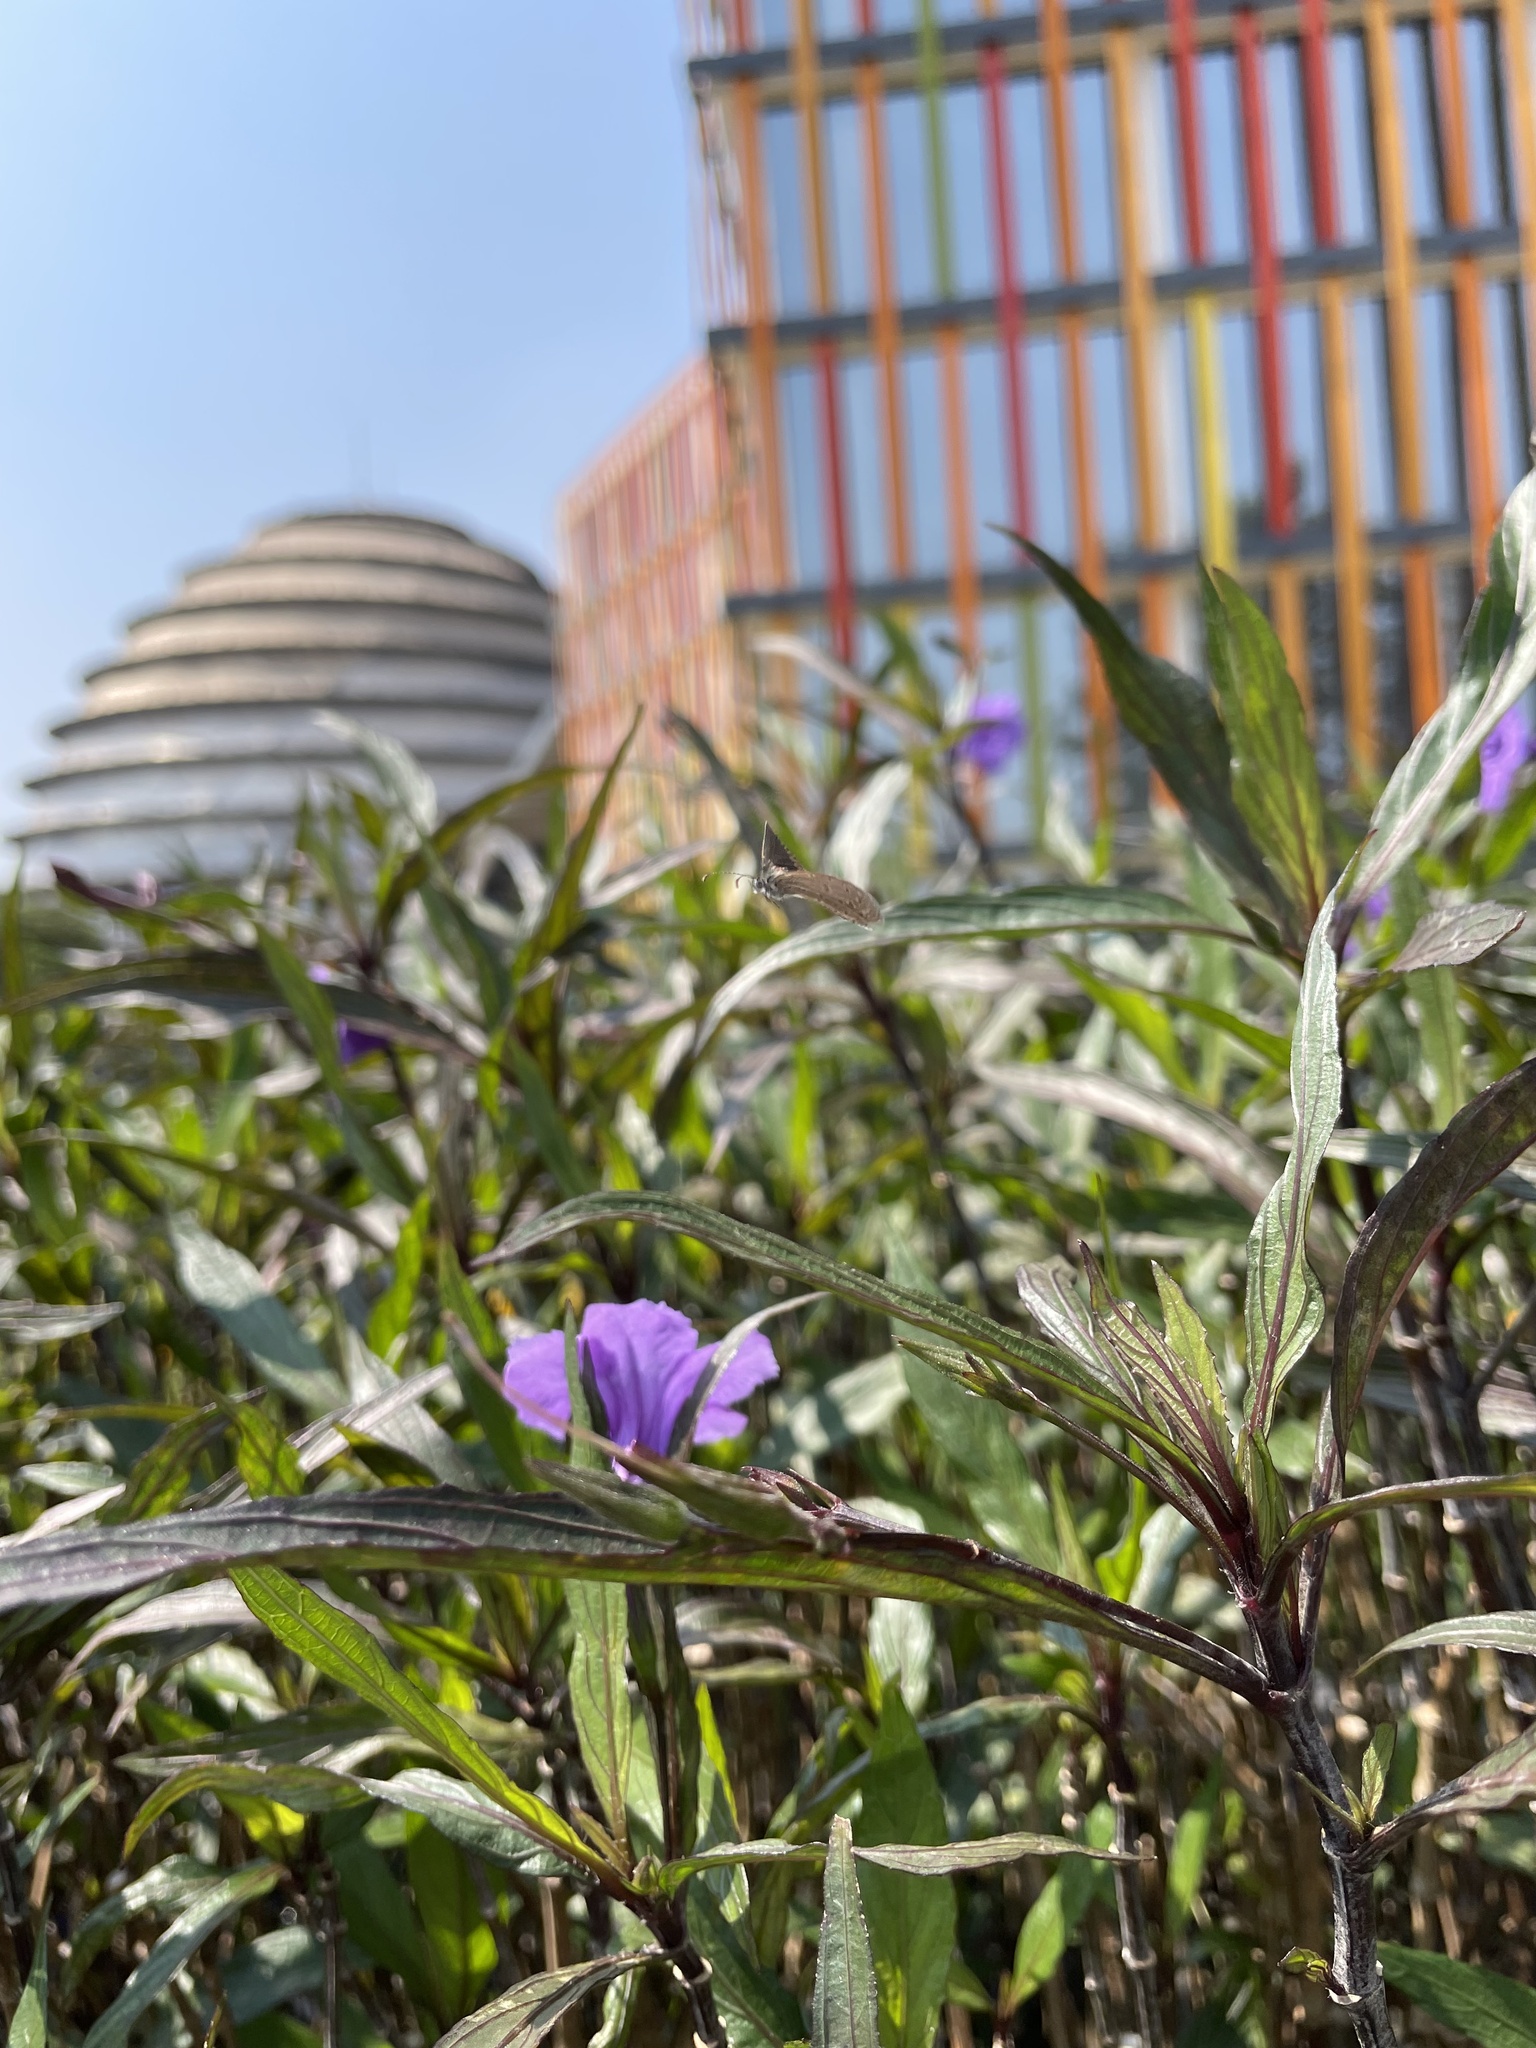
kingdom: Animalia
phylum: Arthropoda
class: Insecta
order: Lepidoptera
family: Lycaenidae
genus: Zizula
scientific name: Zizula hylax
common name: Gaika blue
